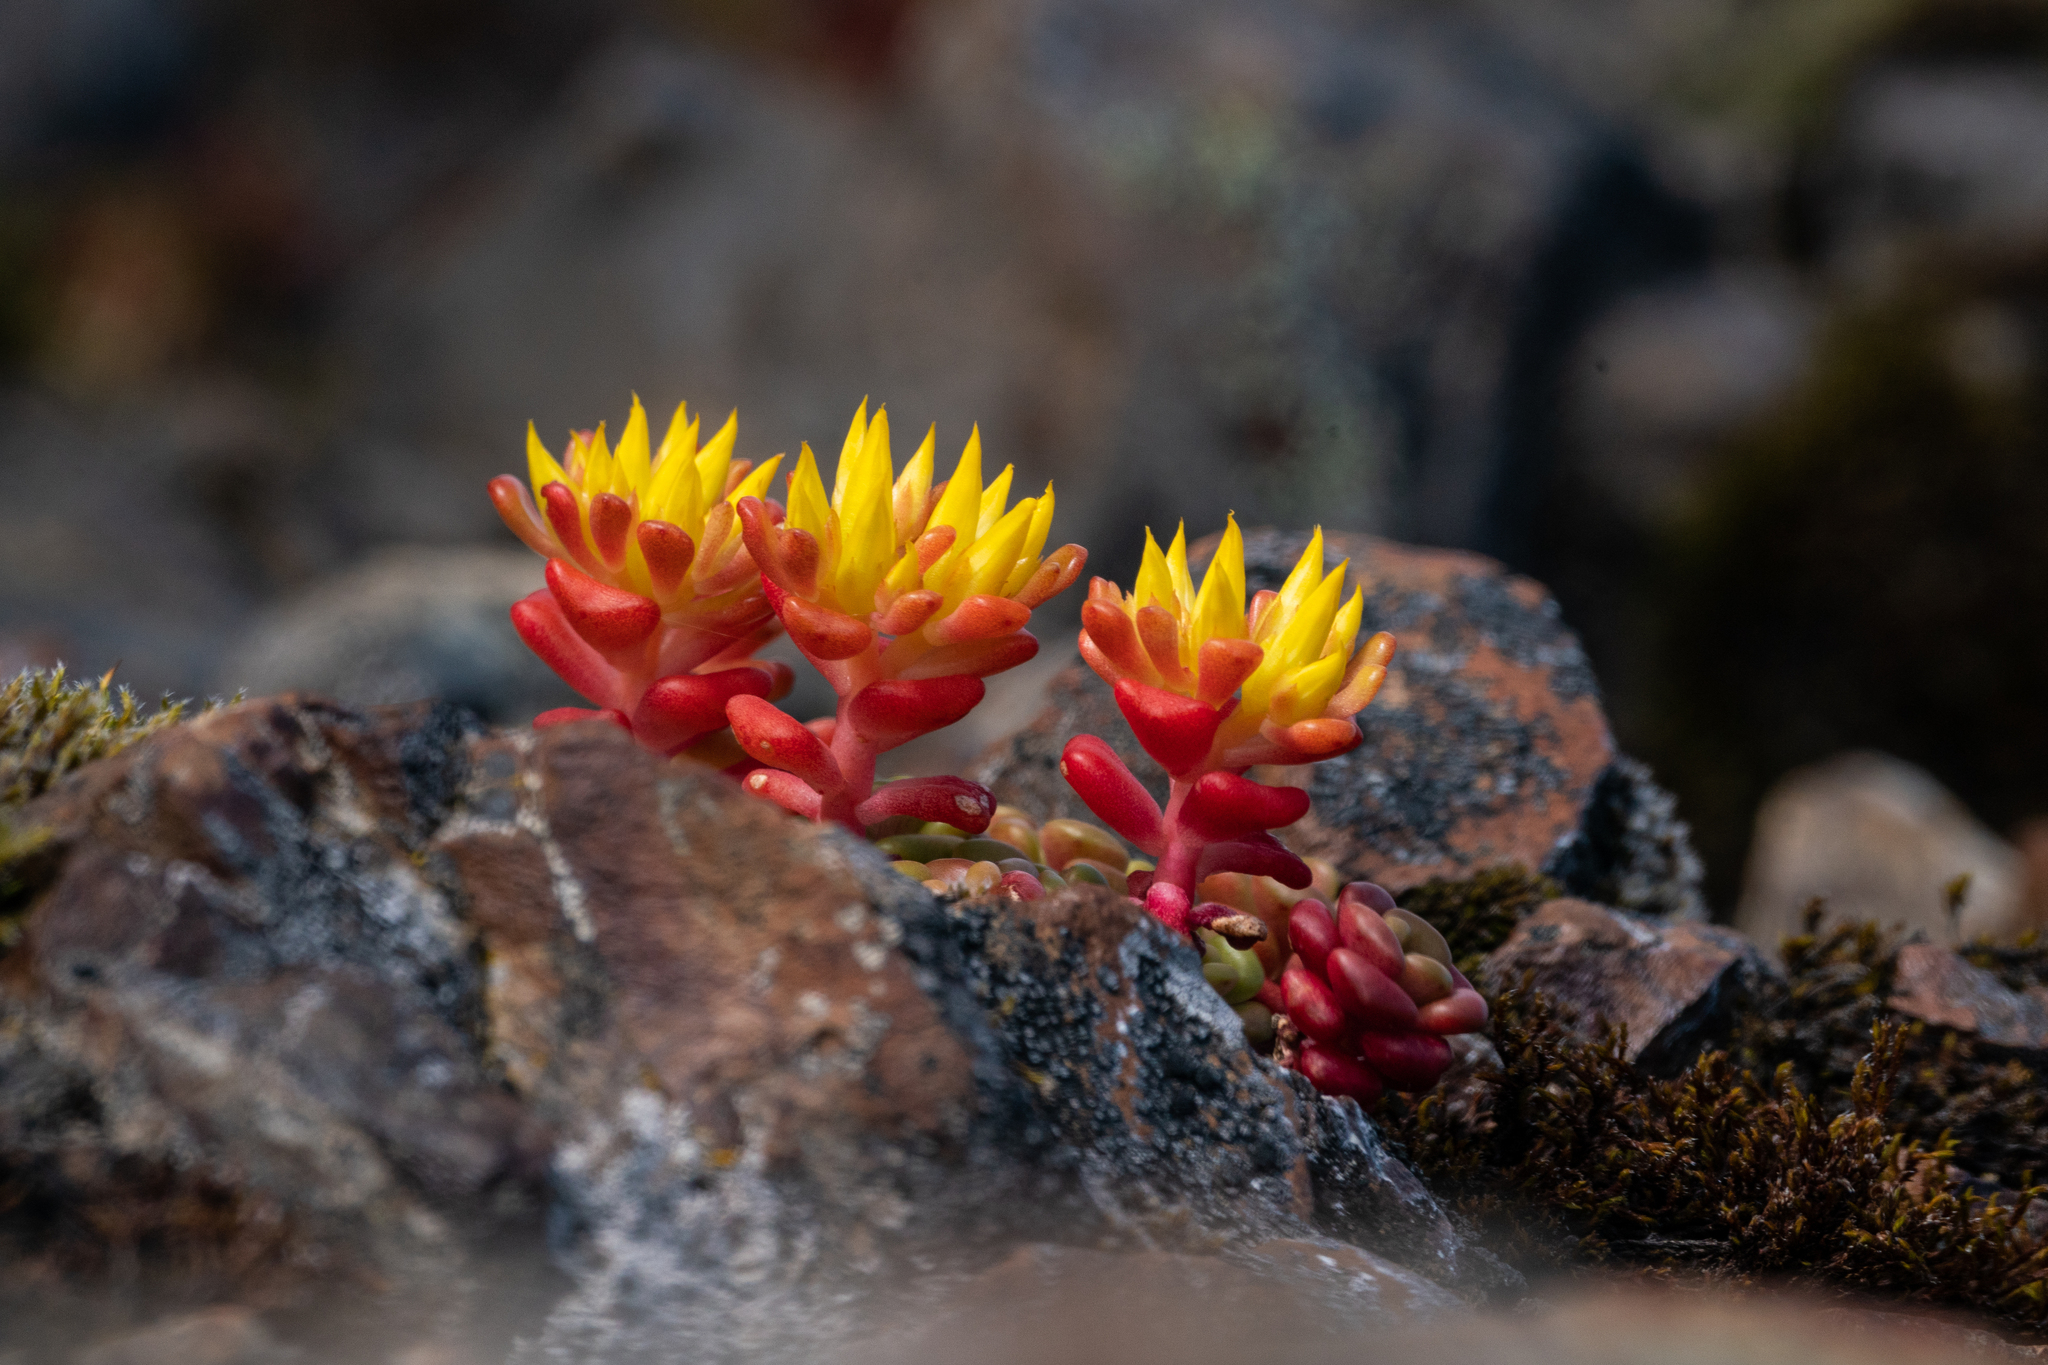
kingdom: Plantae
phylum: Tracheophyta
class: Magnoliopsida
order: Saxifragales
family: Crassulaceae
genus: Sedum
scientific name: Sedum oreganum
